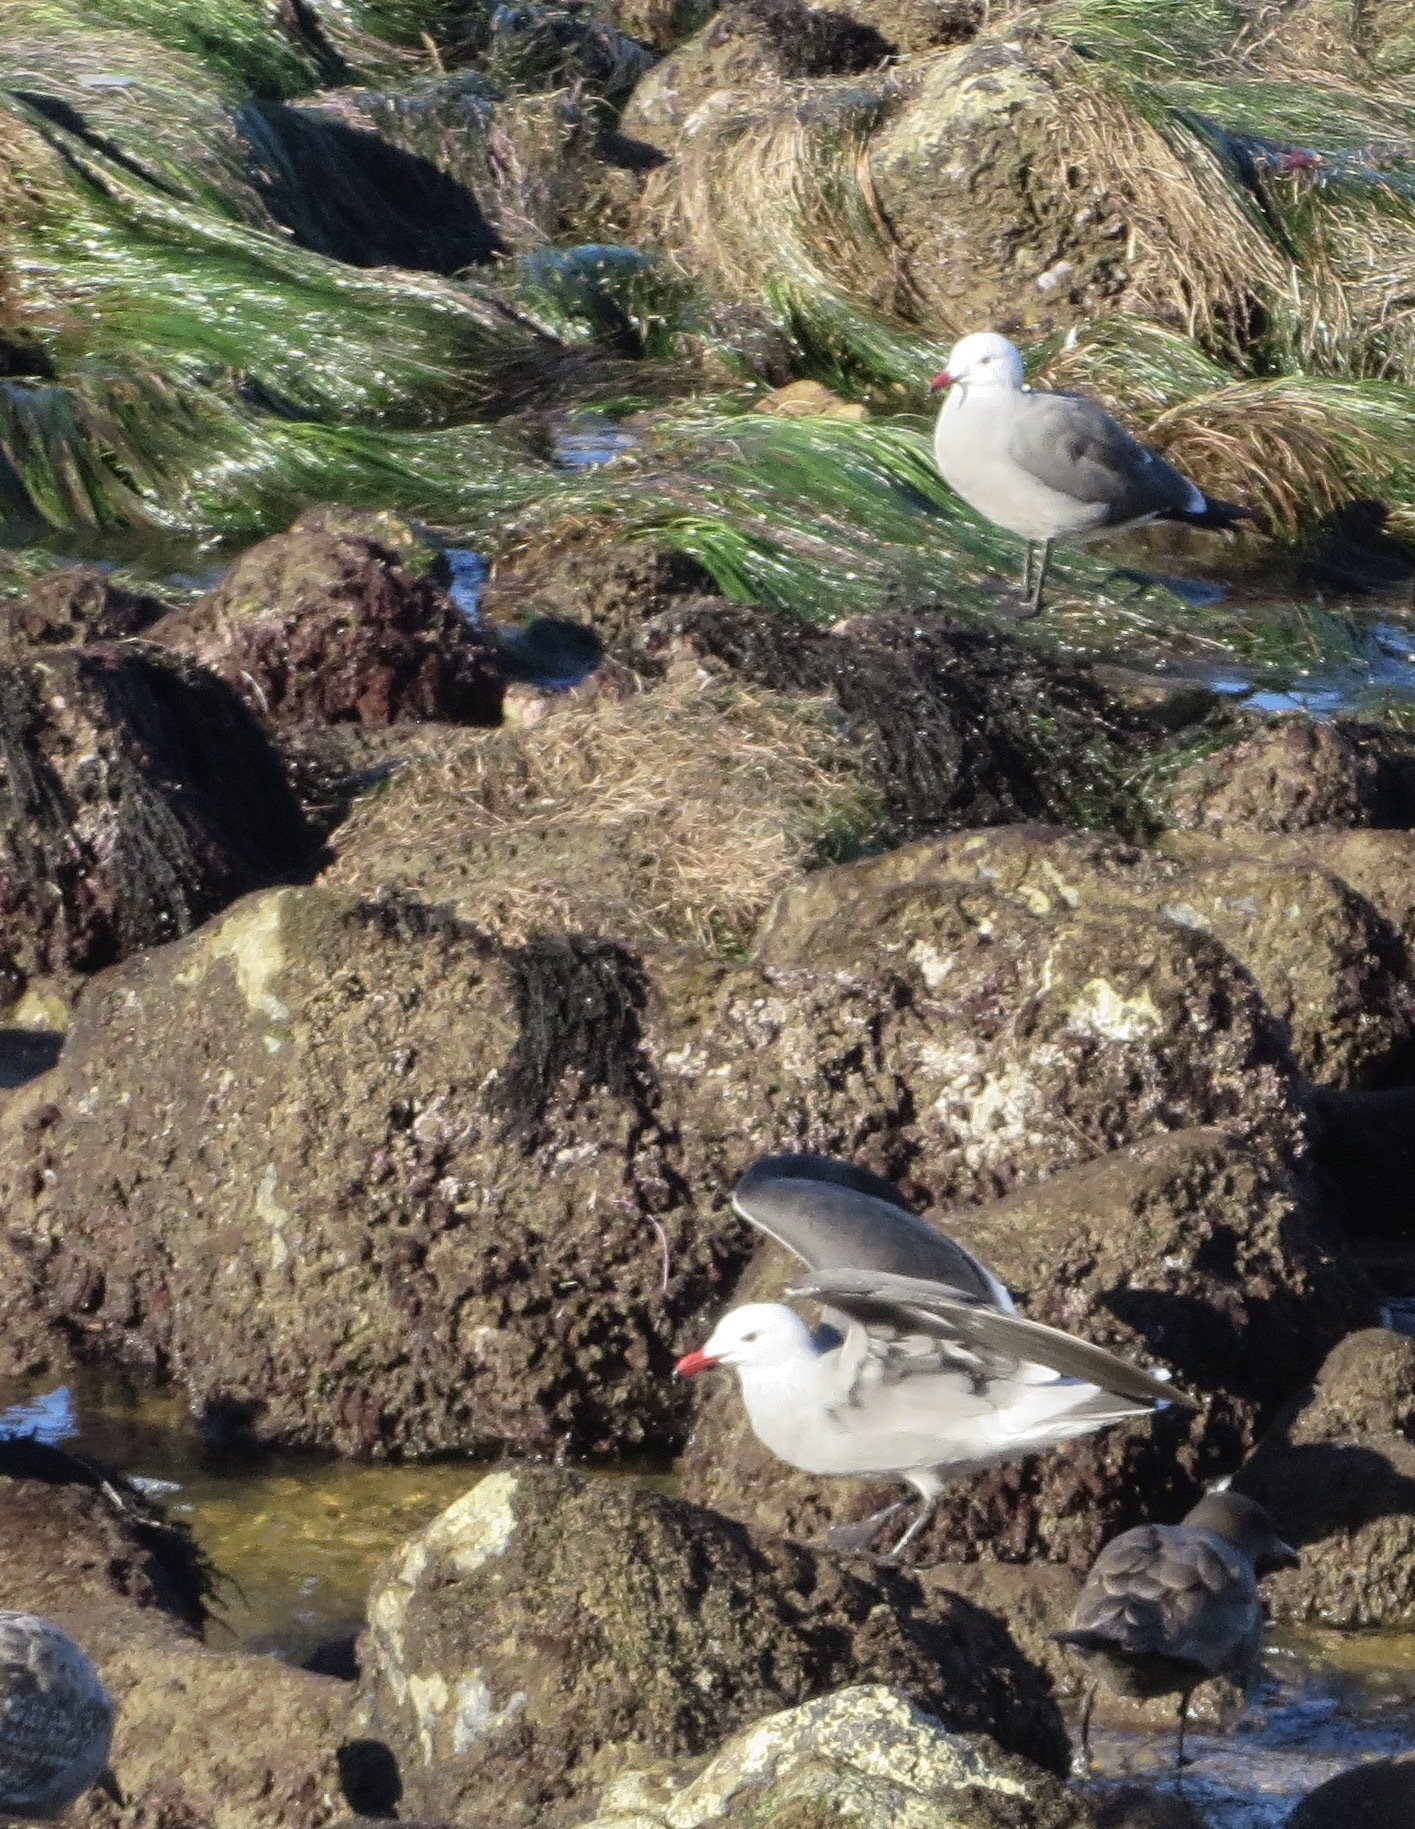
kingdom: Animalia
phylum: Chordata
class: Aves
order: Charadriiformes
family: Laridae
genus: Larus
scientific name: Larus heermanni
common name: Heermann's gull
